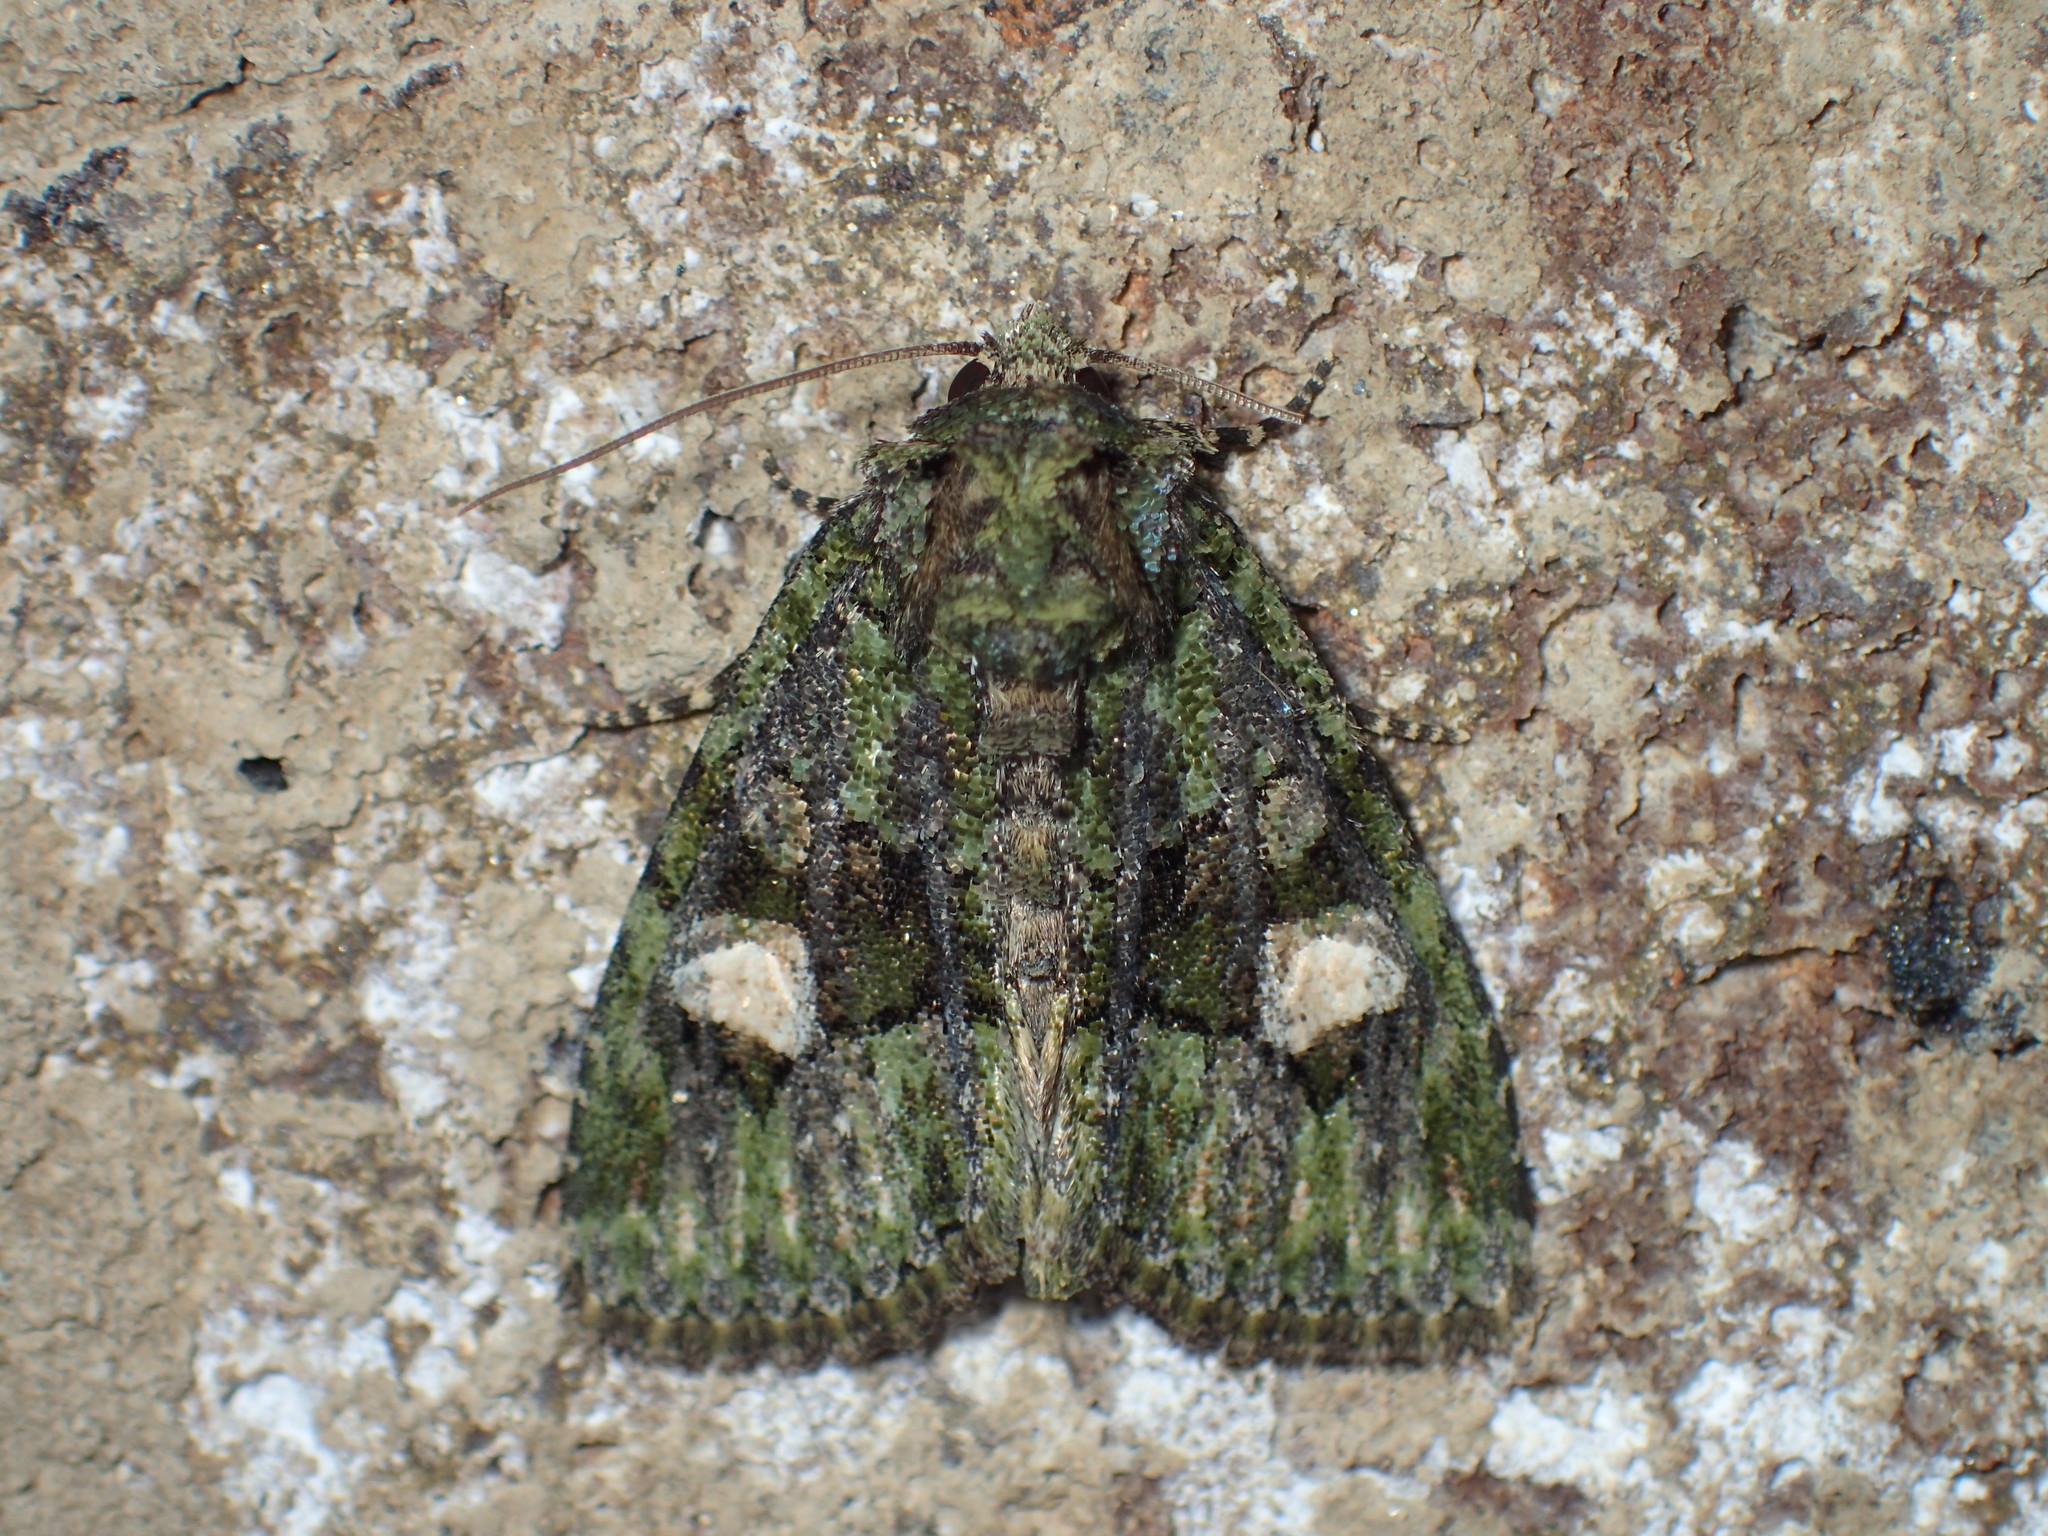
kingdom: Animalia
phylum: Arthropoda
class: Insecta
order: Lepidoptera
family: Noctuidae
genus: Phosphila
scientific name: Phosphila miselioides
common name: Spotted phosphila moth
